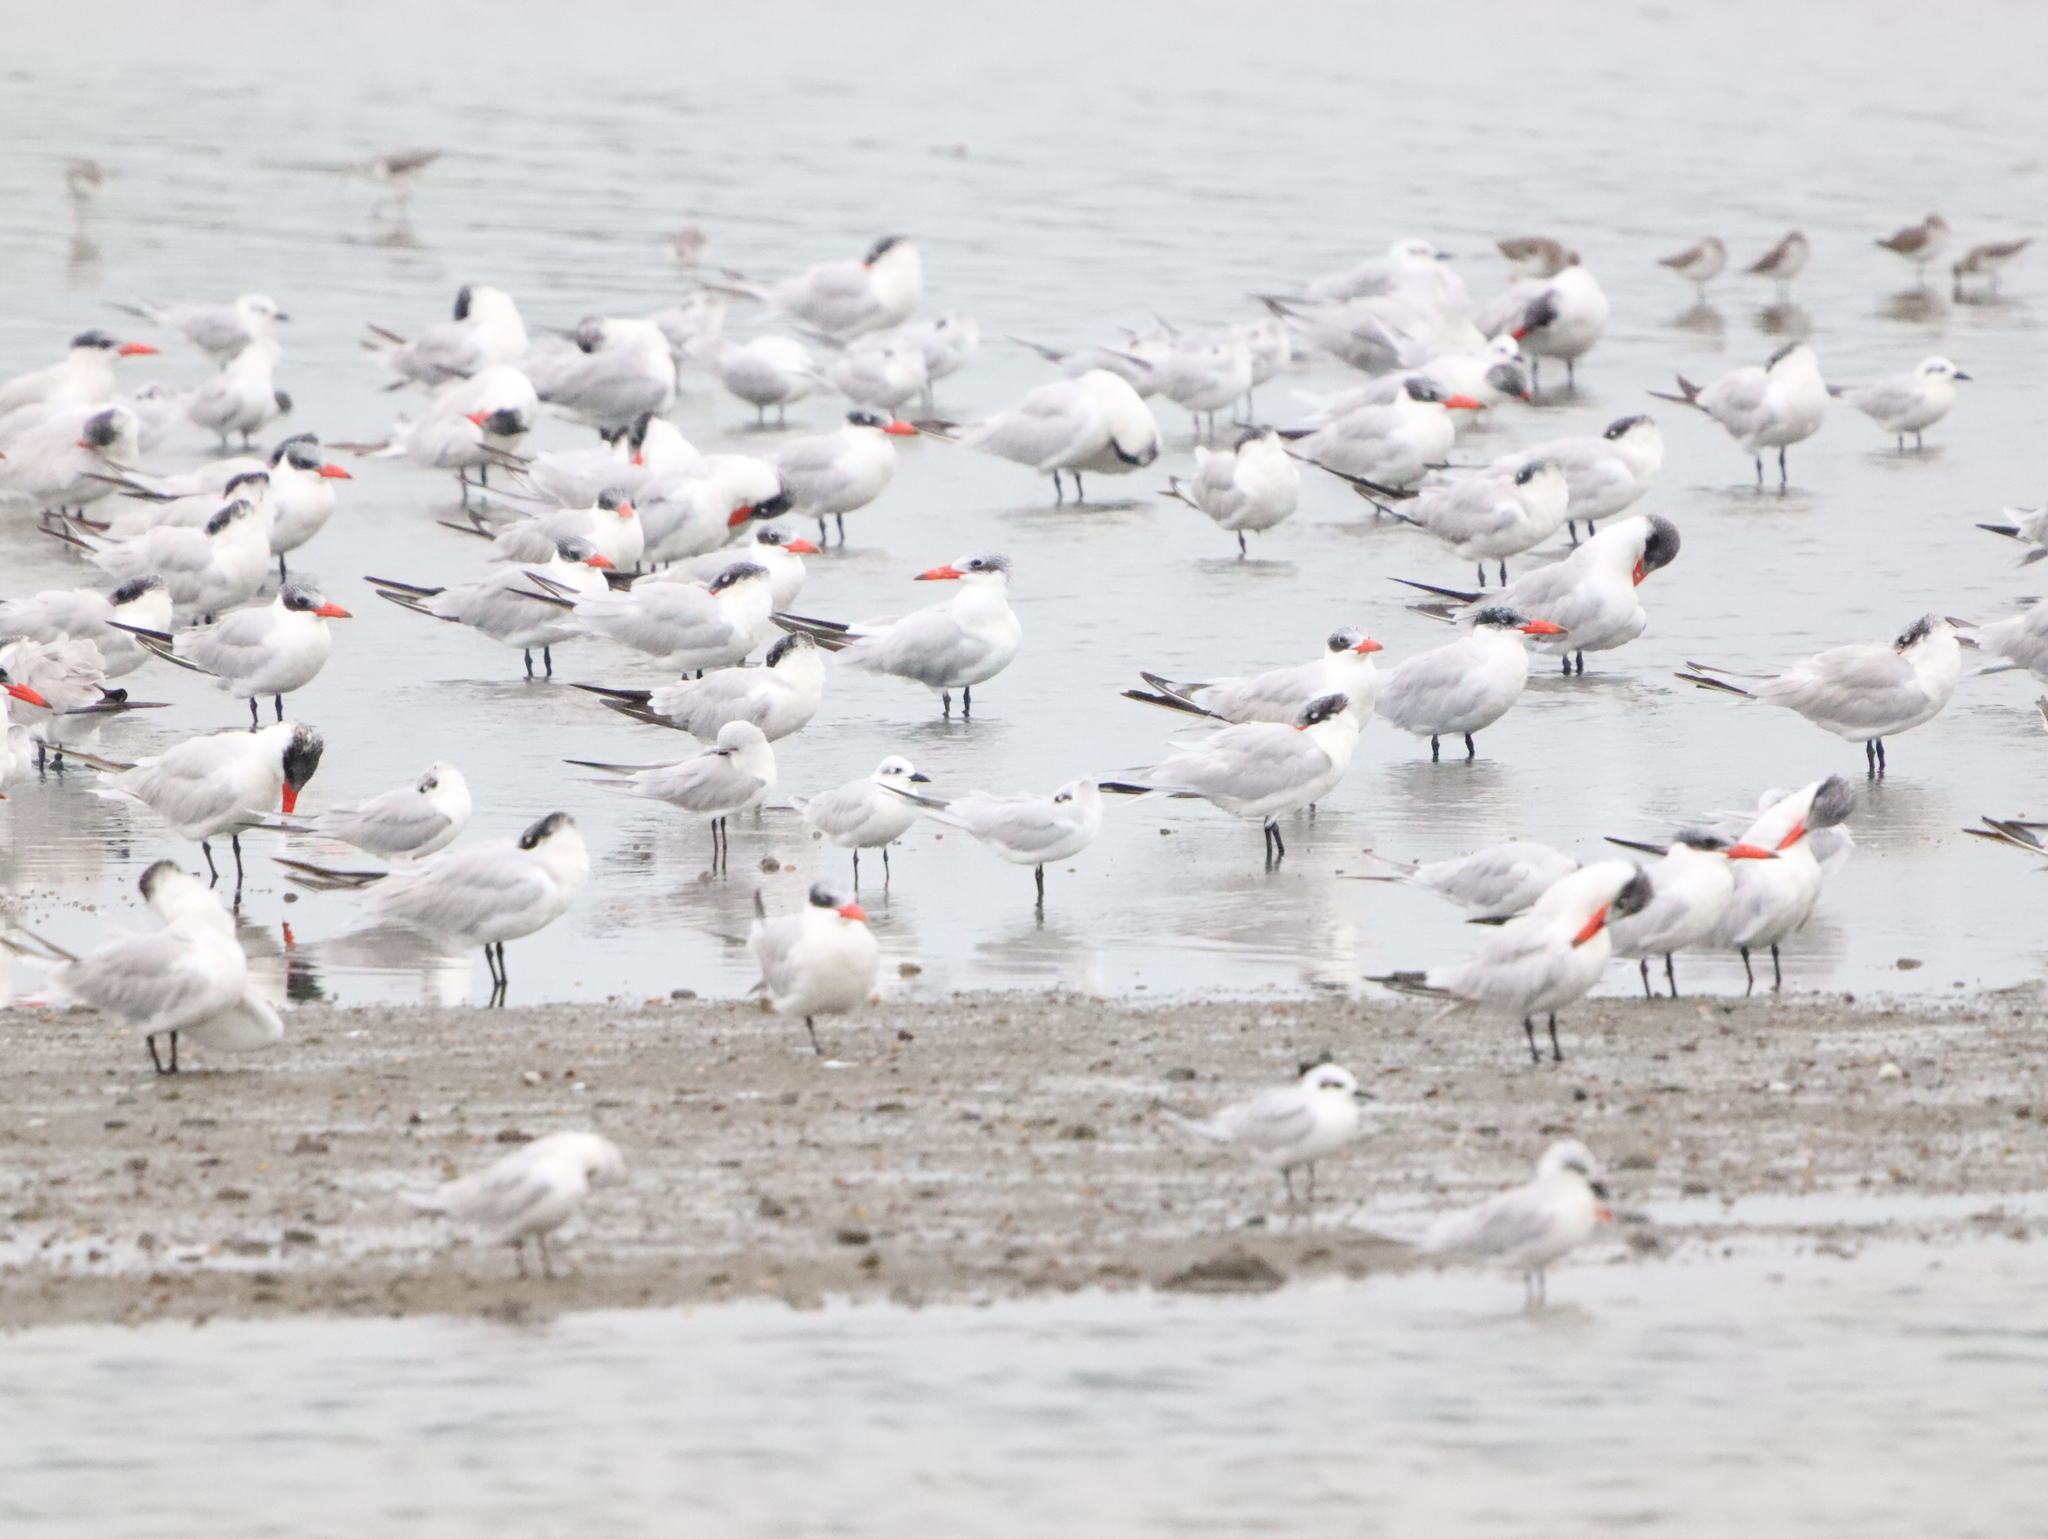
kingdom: Animalia
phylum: Chordata
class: Aves
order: Charadriiformes
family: Laridae
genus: Hydroprogne
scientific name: Hydroprogne caspia
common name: Caspian tern
